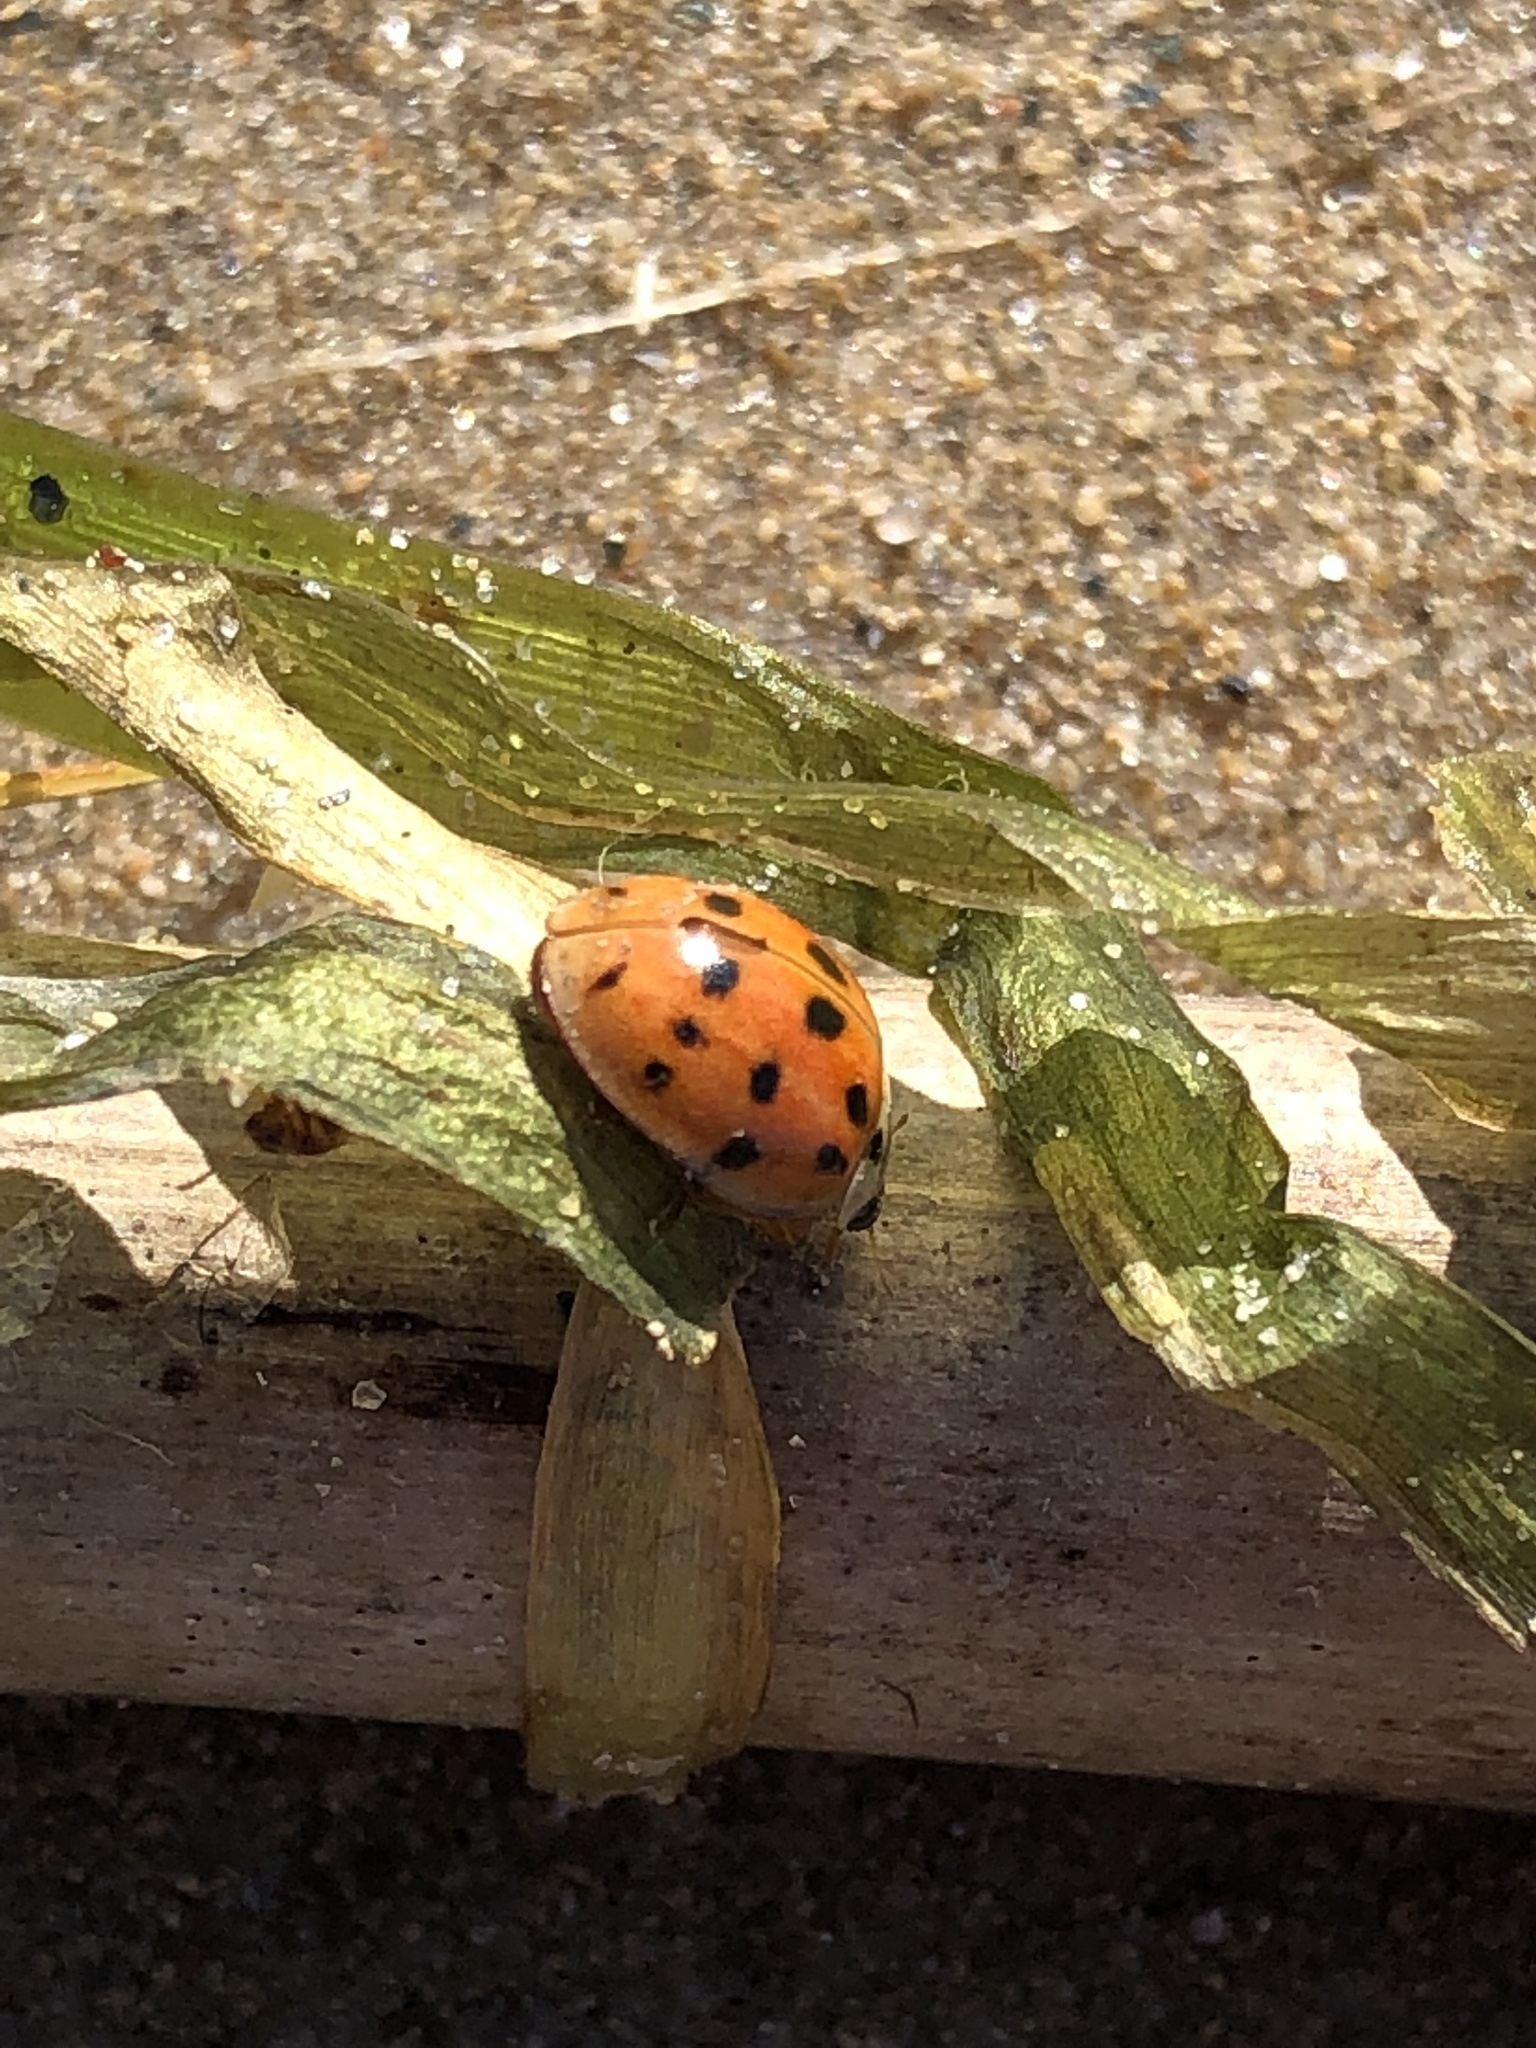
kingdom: Animalia
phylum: Arthropoda
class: Insecta
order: Coleoptera
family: Coccinellidae
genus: Harmonia
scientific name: Harmonia axyridis
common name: Harlequin ladybird
